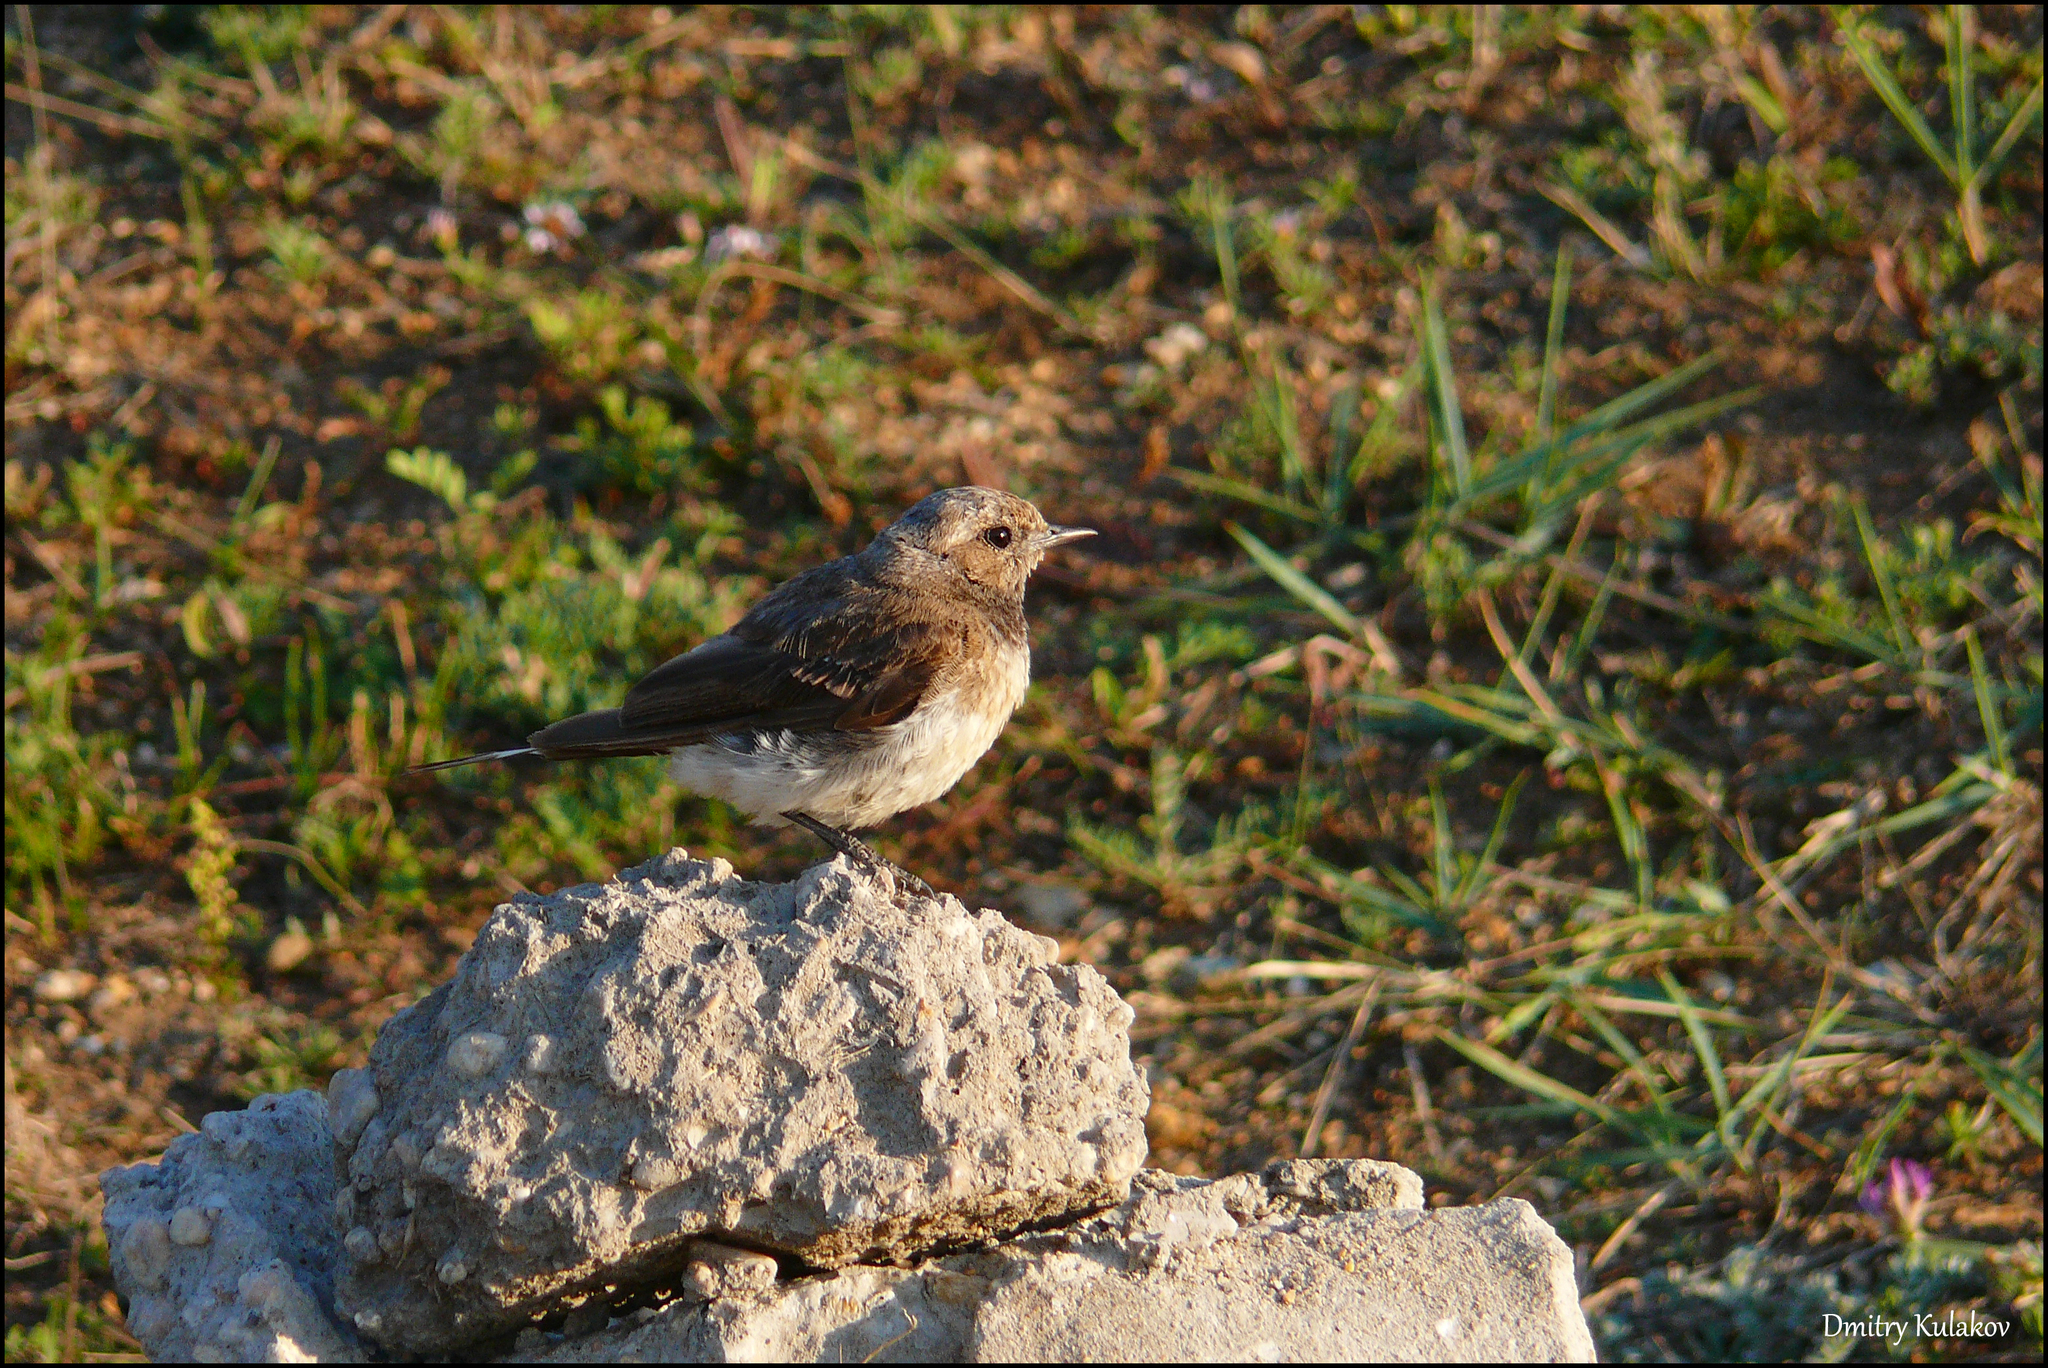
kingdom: Animalia
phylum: Chordata
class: Aves
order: Passeriformes
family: Muscicapidae
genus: Oenanthe
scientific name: Oenanthe pleschanka
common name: Pied wheatear
